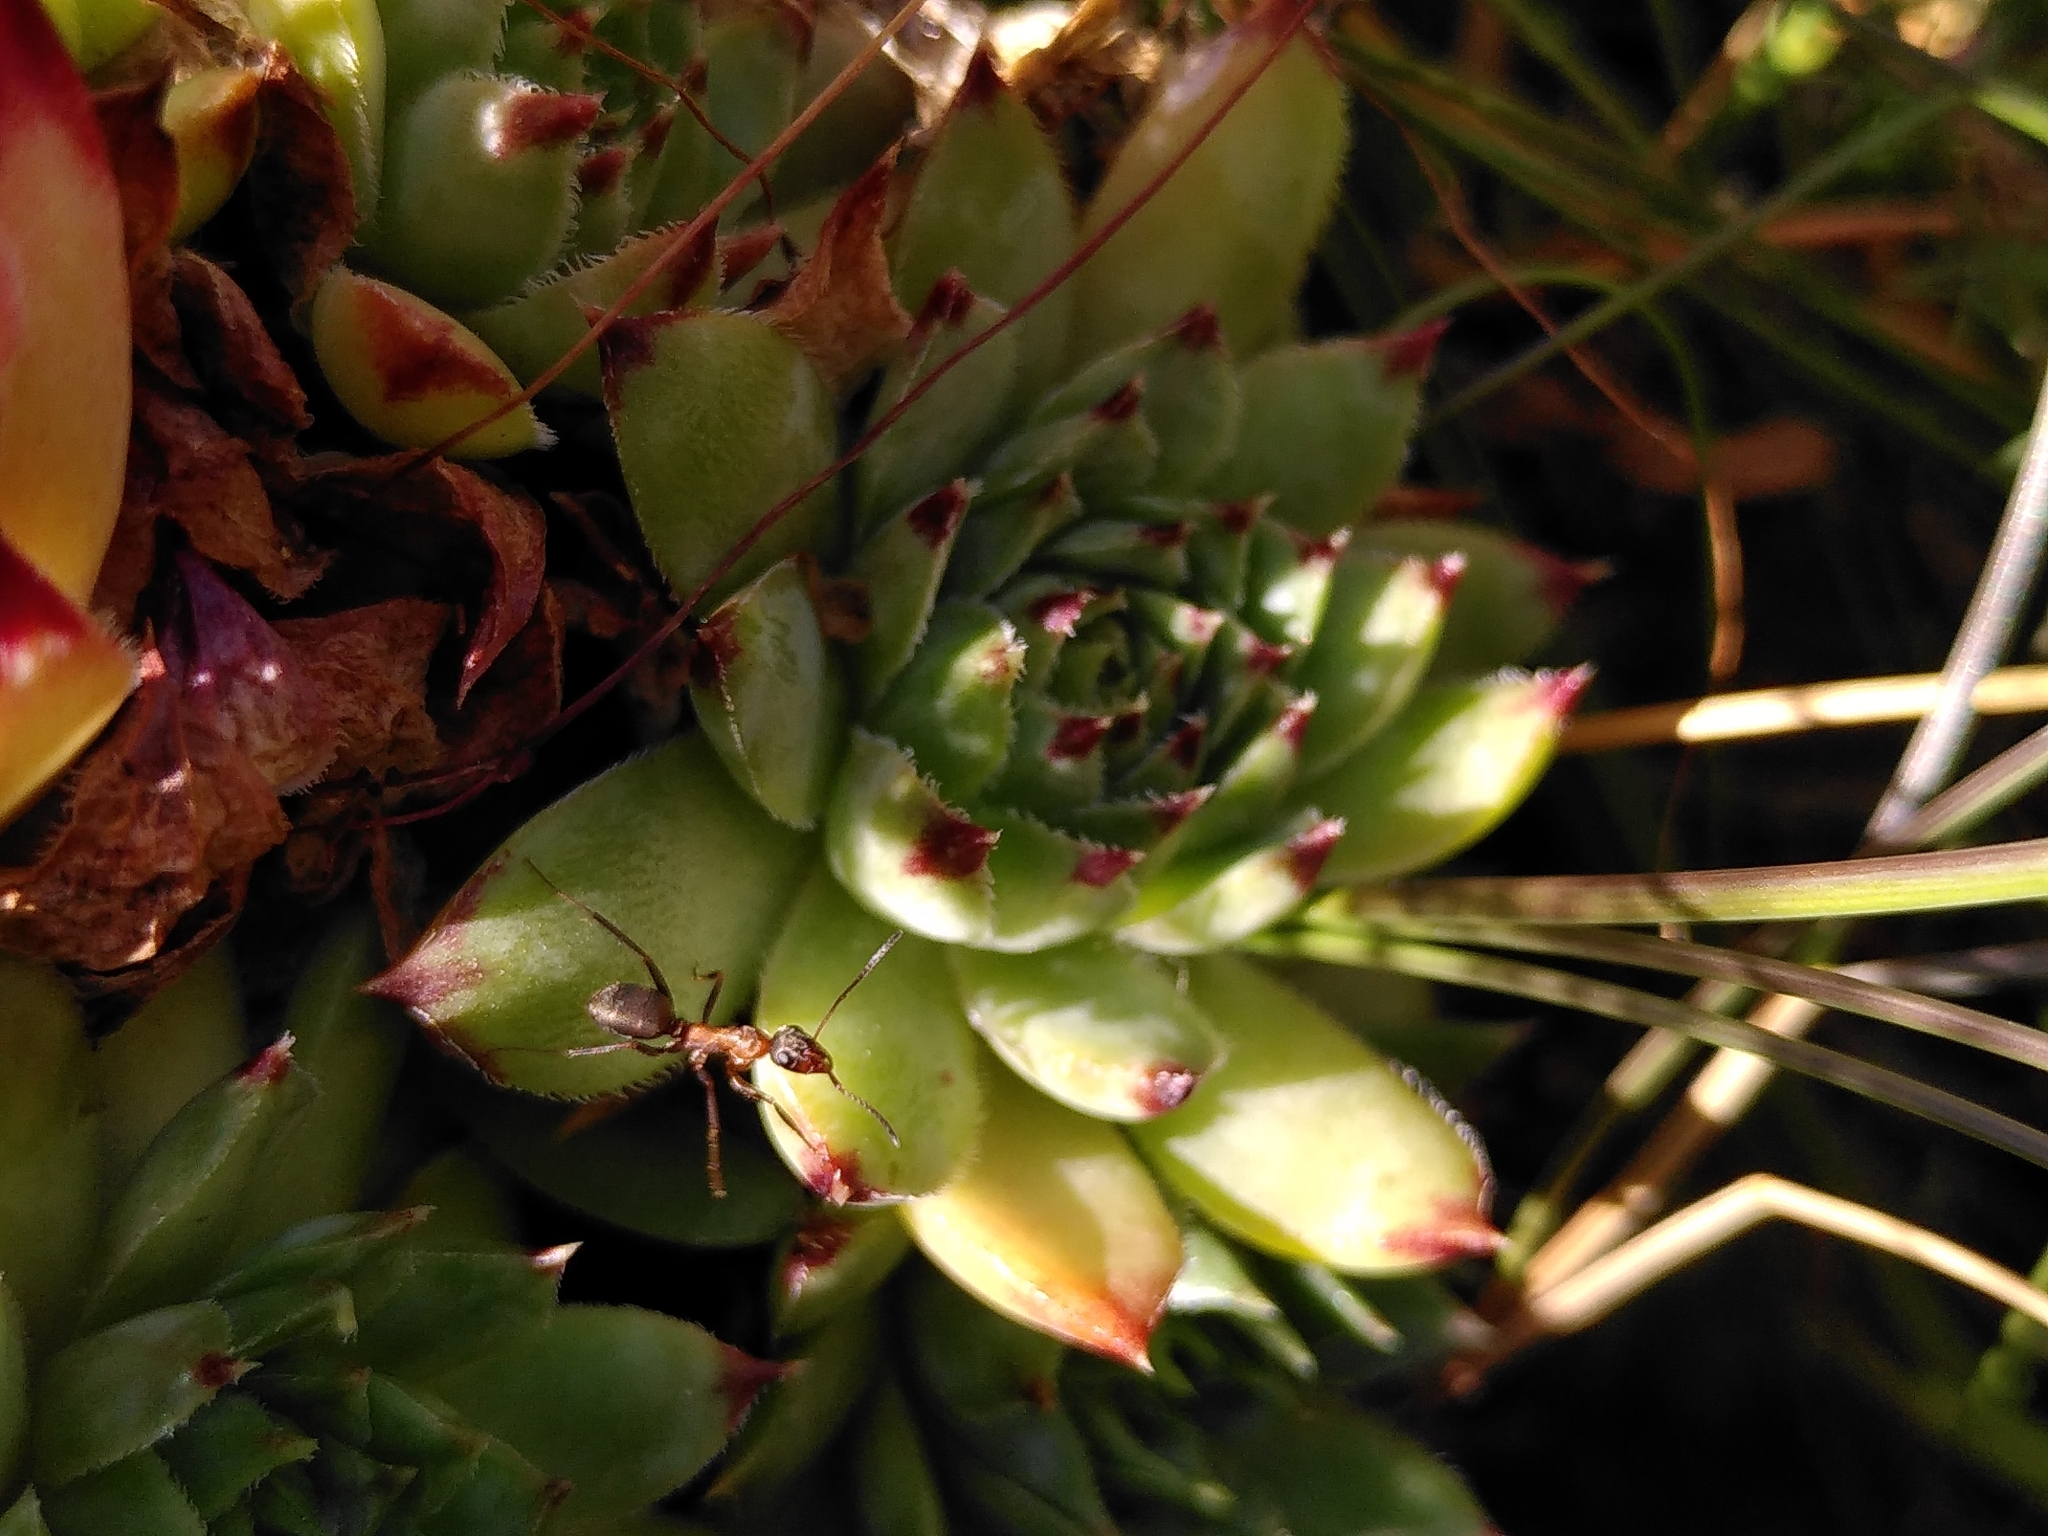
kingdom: Plantae
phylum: Tracheophyta
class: Magnoliopsida
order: Saxifragales
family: Crassulaceae
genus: Sempervivum
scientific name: Sempervivum tectorum
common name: House-leek
